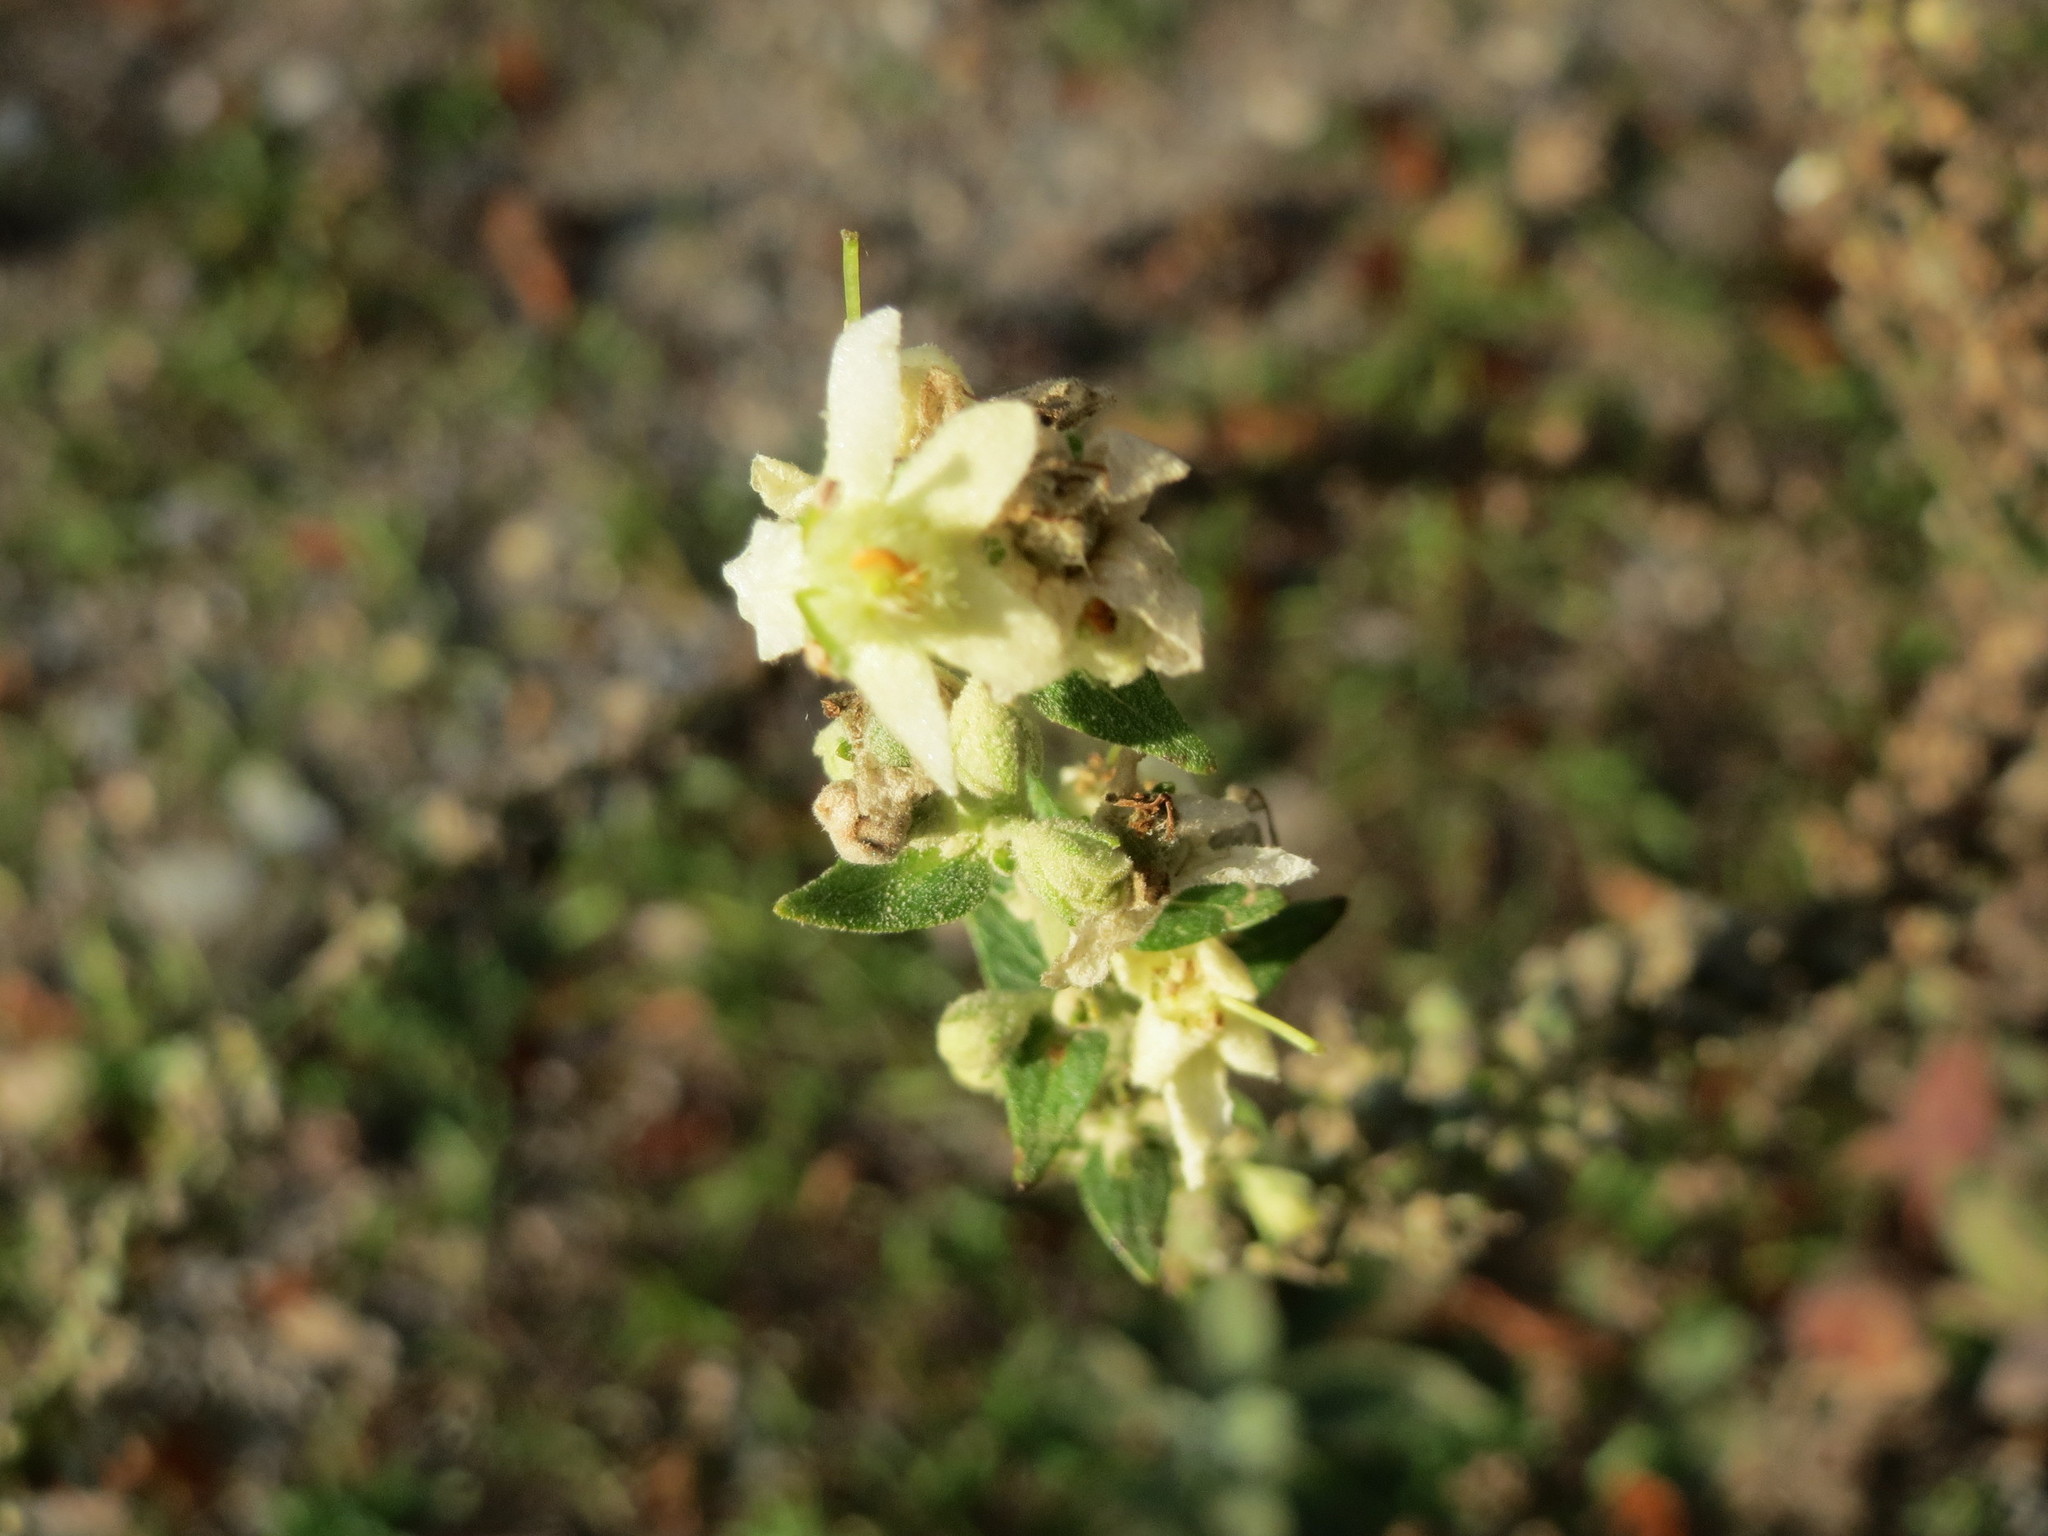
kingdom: Plantae
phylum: Tracheophyta
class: Magnoliopsida
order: Lamiales
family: Scrophulariaceae
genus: Verbascum
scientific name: Verbascum lychnitis
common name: White mullein
